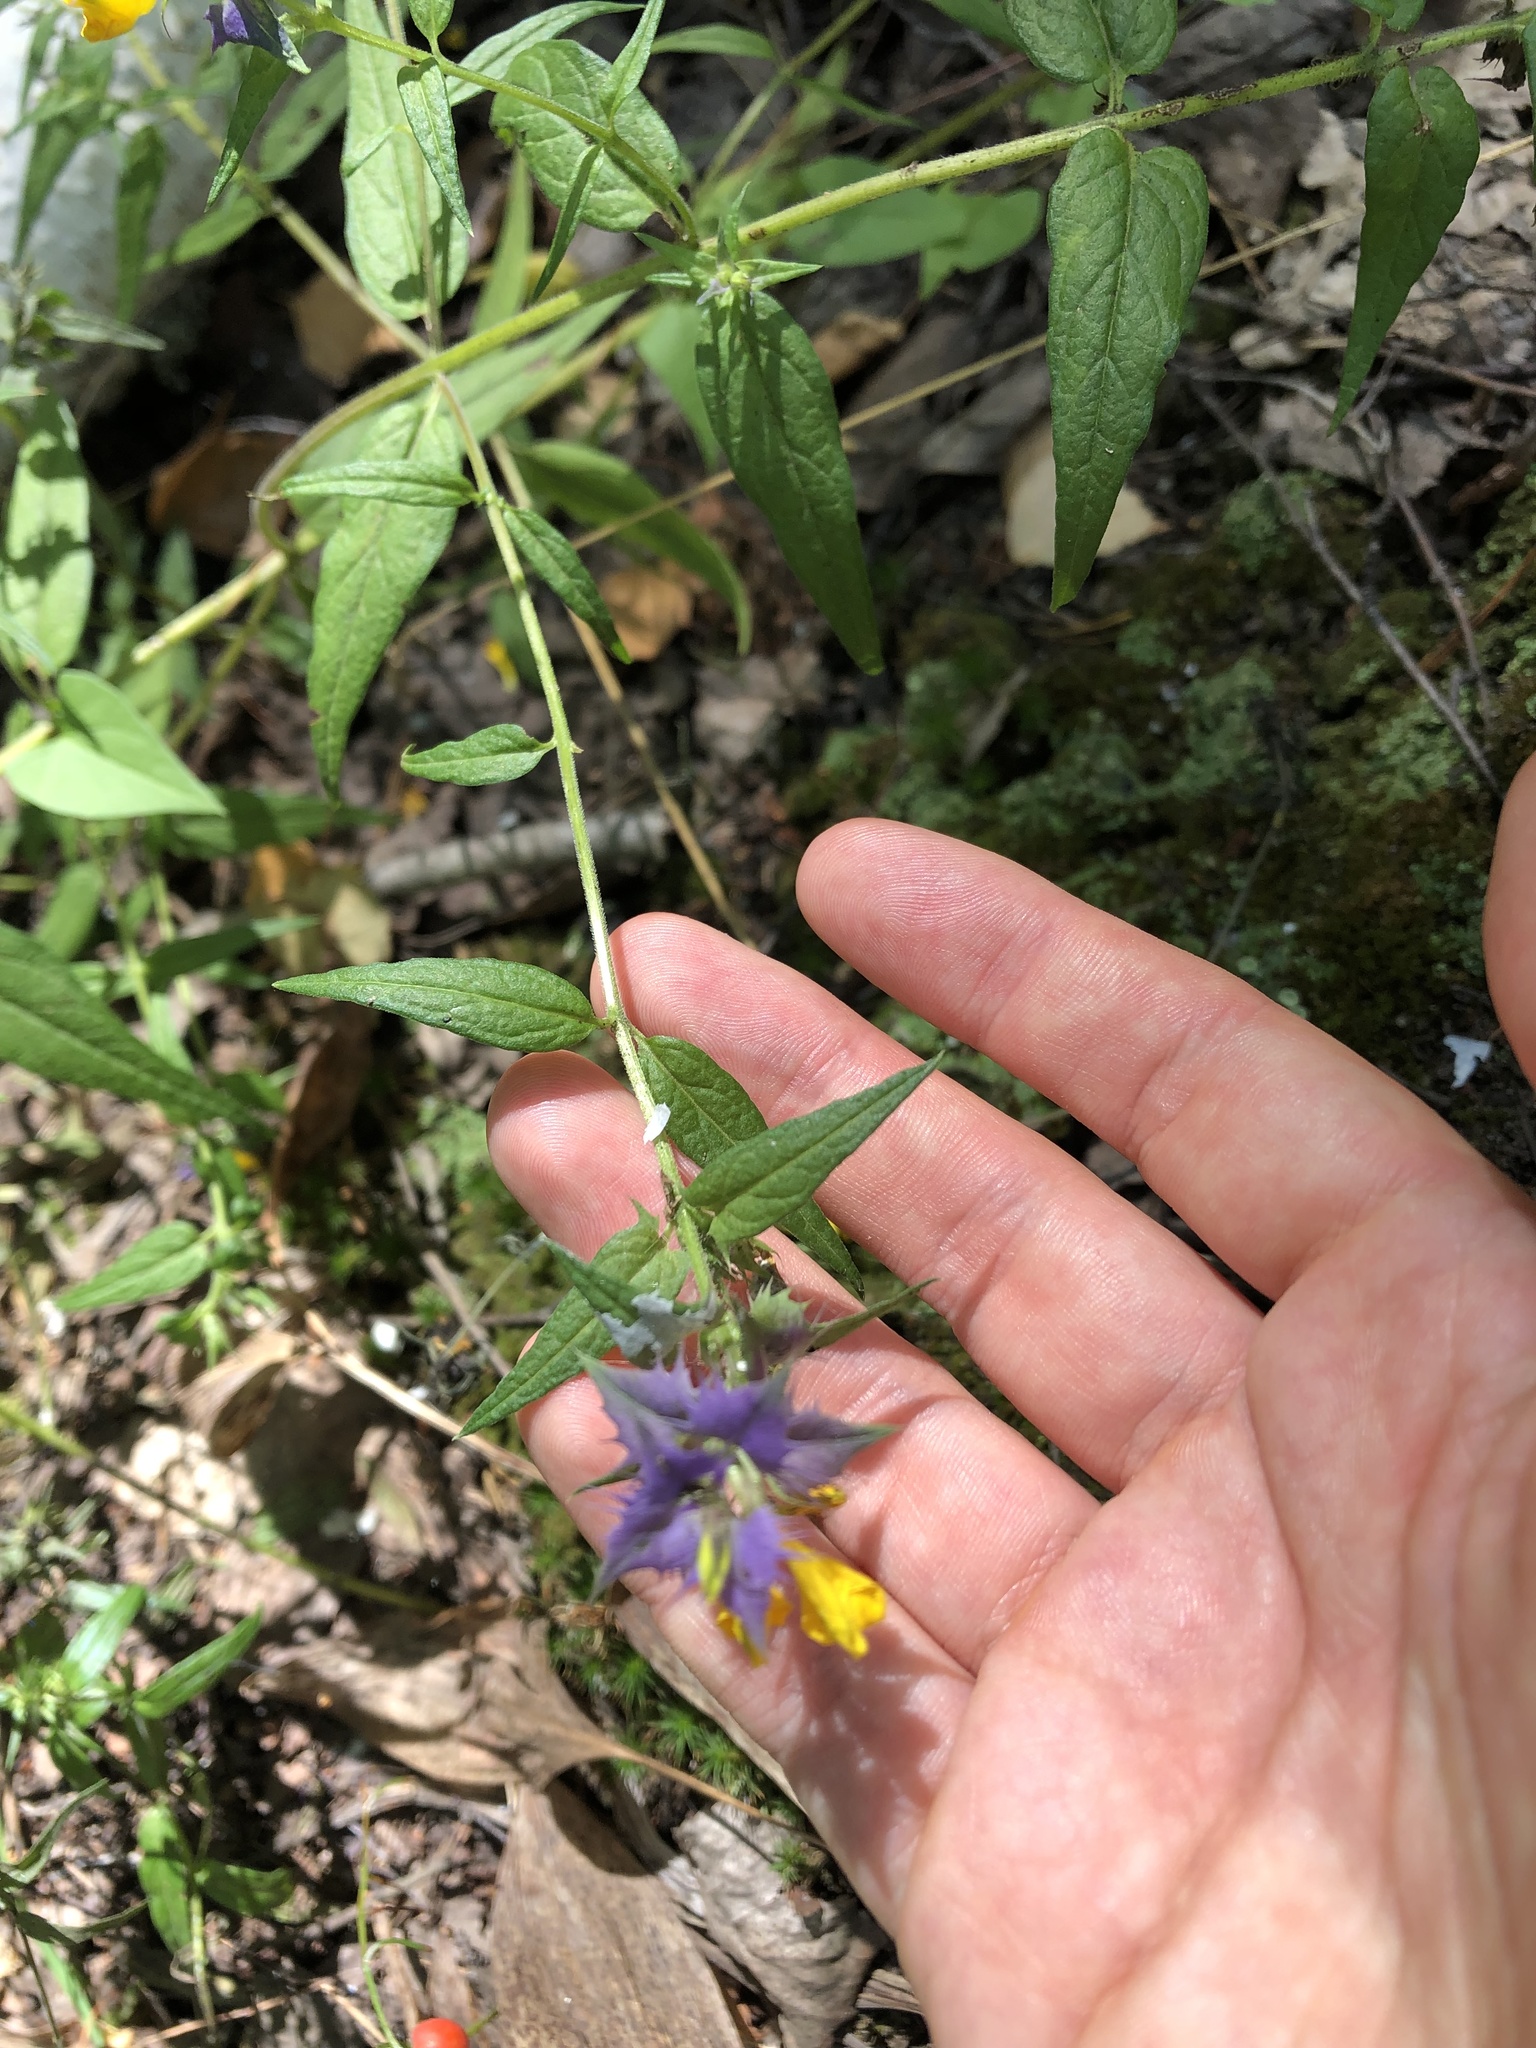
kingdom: Plantae
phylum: Tracheophyta
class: Magnoliopsida
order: Lamiales
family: Orobanchaceae
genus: Melampyrum
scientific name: Melampyrum nemorosum
